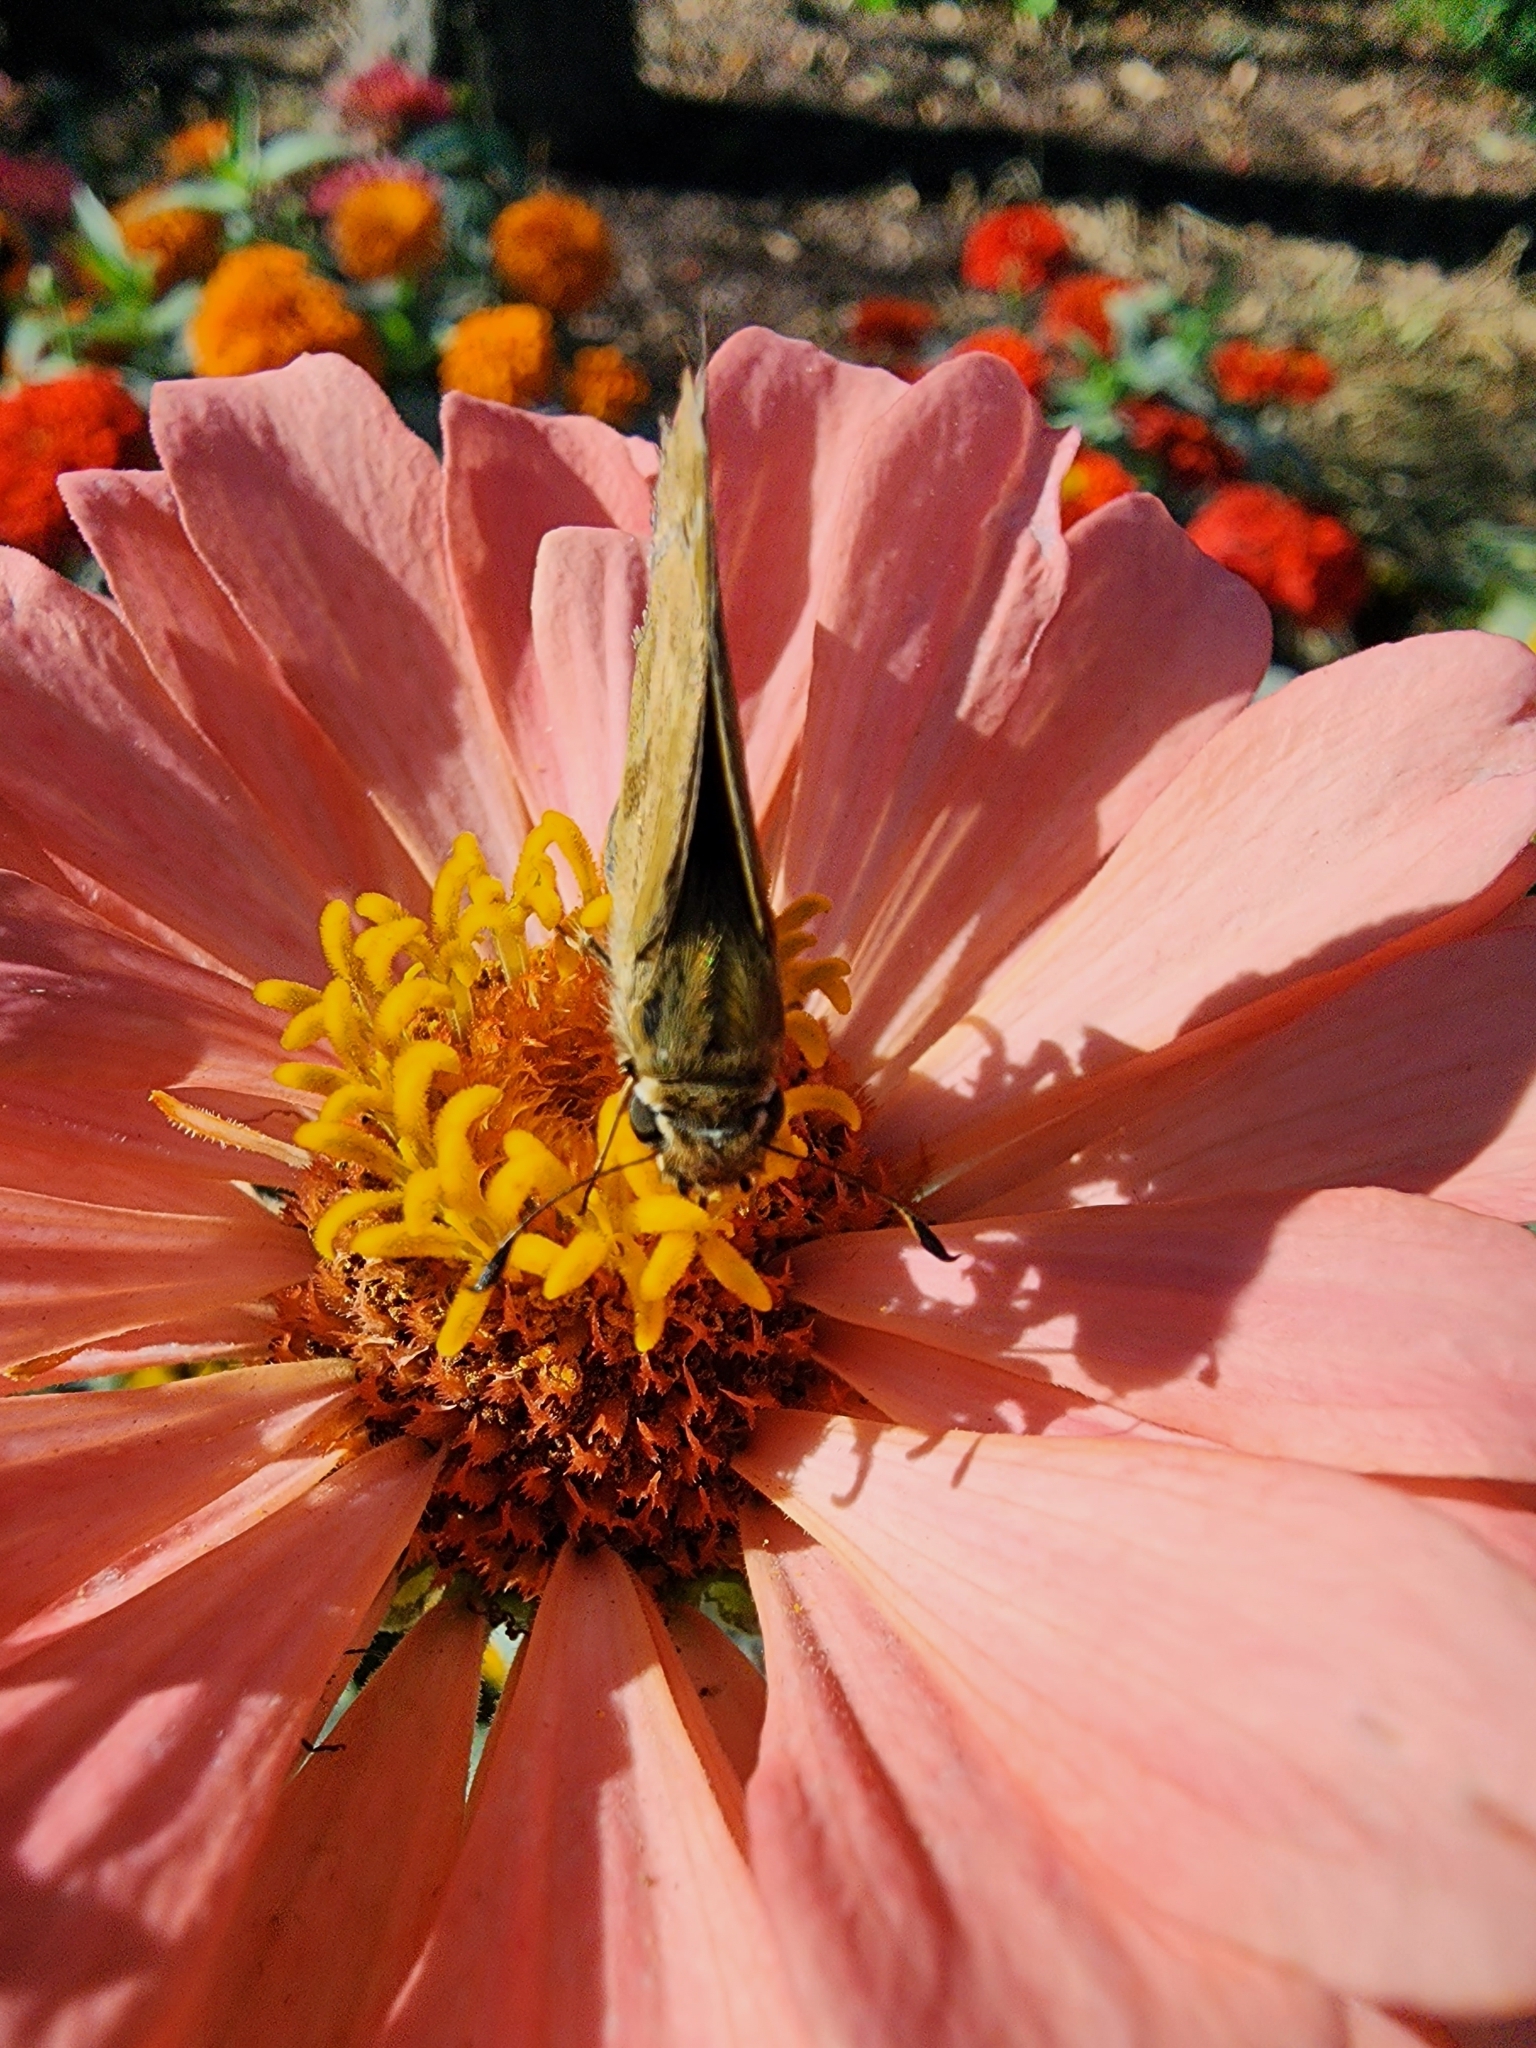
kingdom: Animalia
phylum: Arthropoda
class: Insecta
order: Lepidoptera
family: Hesperiidae
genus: Atalopedes
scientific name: Atalopedes
